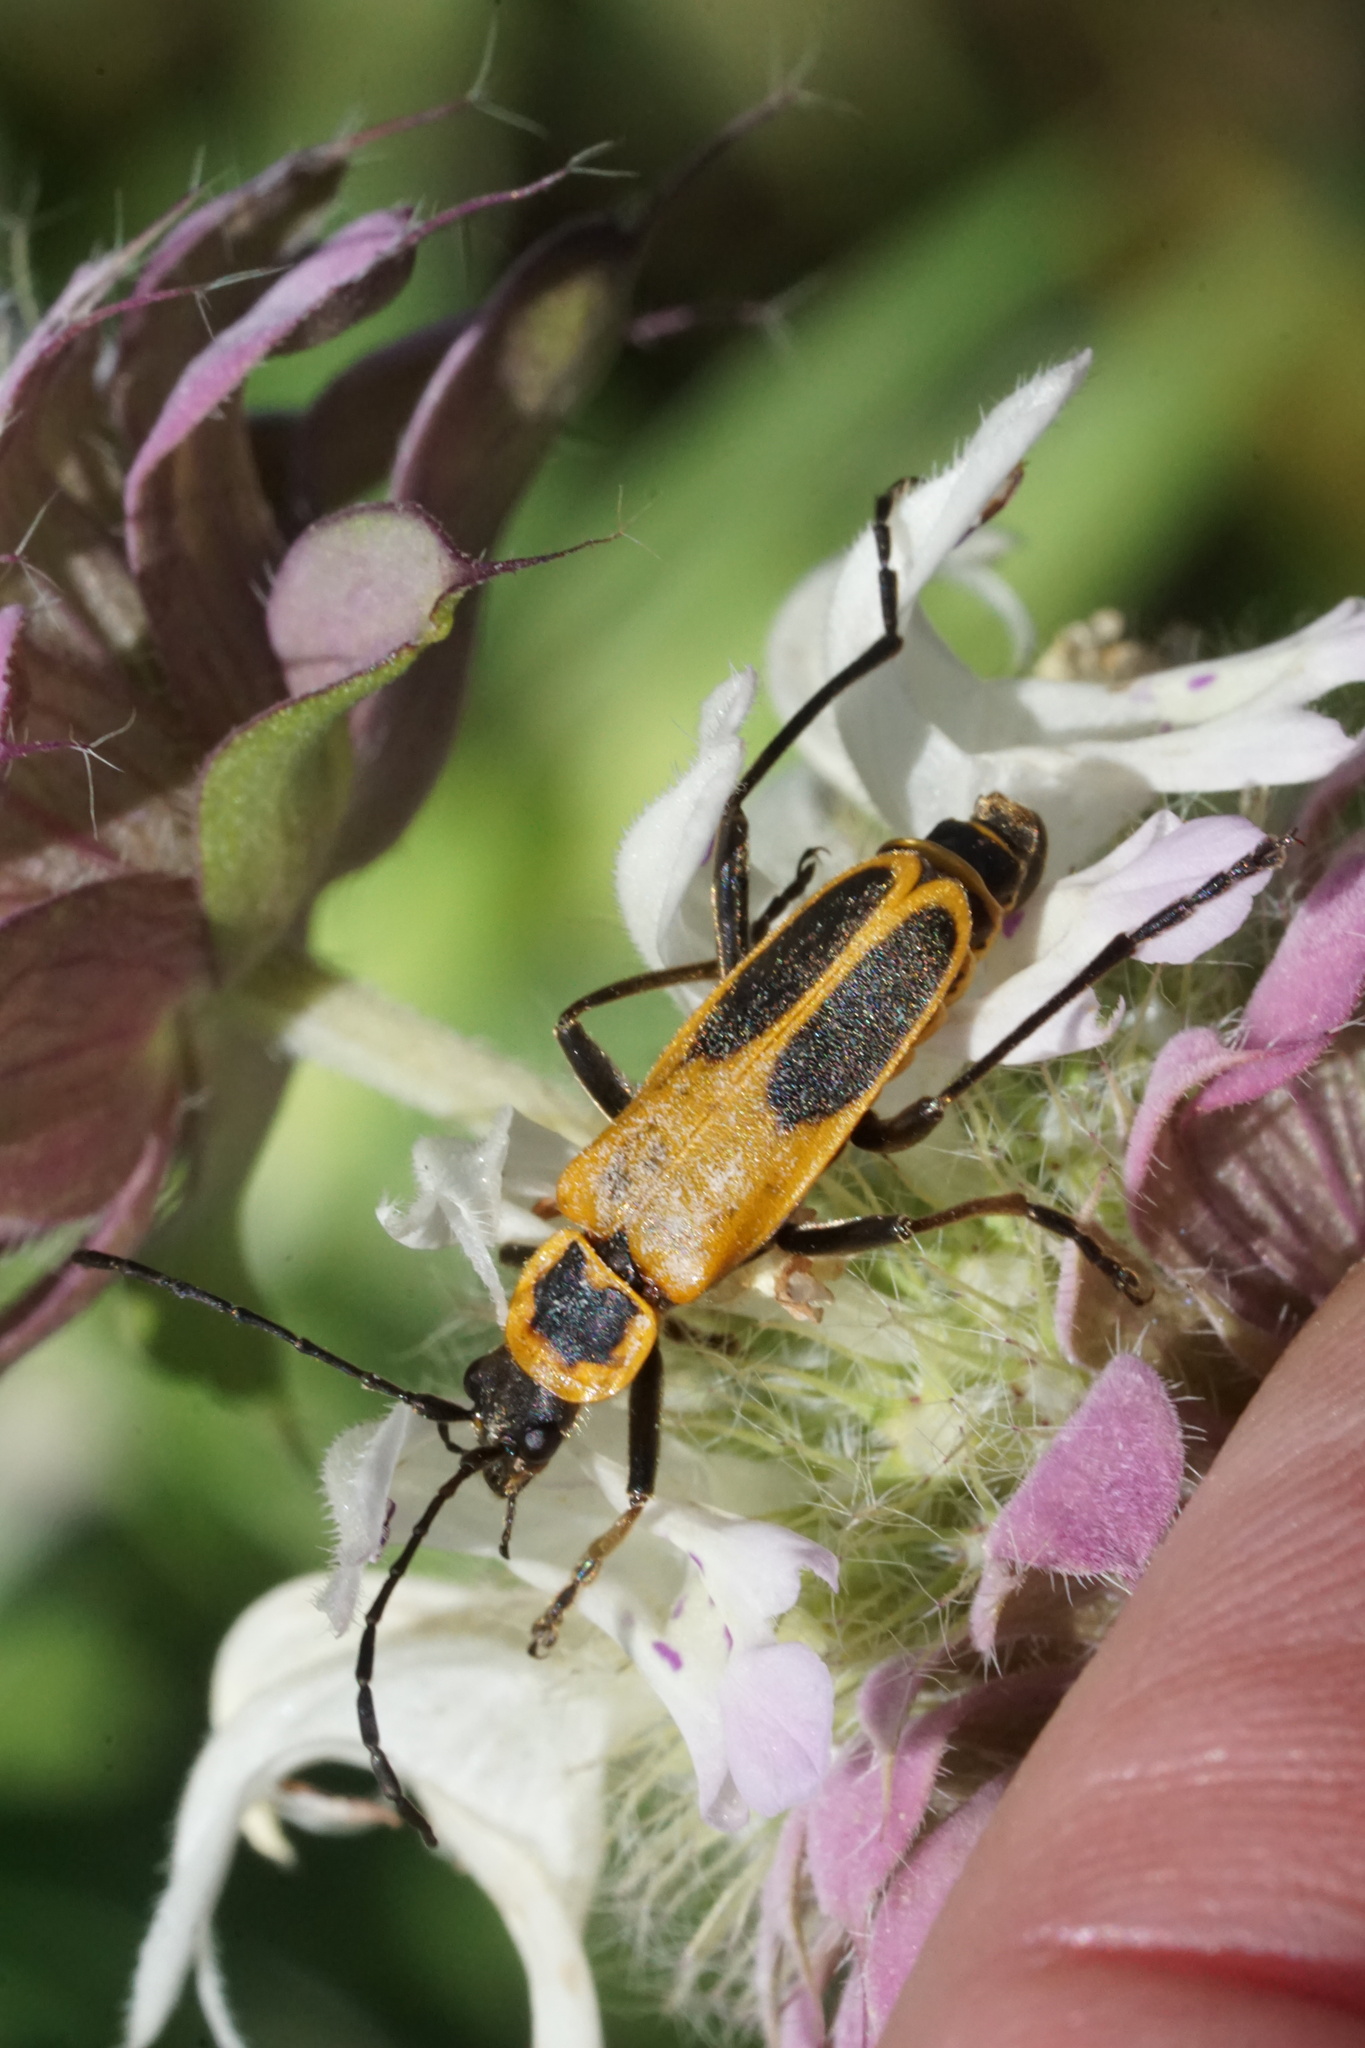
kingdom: Animalia
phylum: Arthropoda
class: Insecta
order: Coleoptera
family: Cantharidae
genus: Chauliognathus
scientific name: Chauliognathus pensylvanicus
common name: Goldenrod soldier beetle
